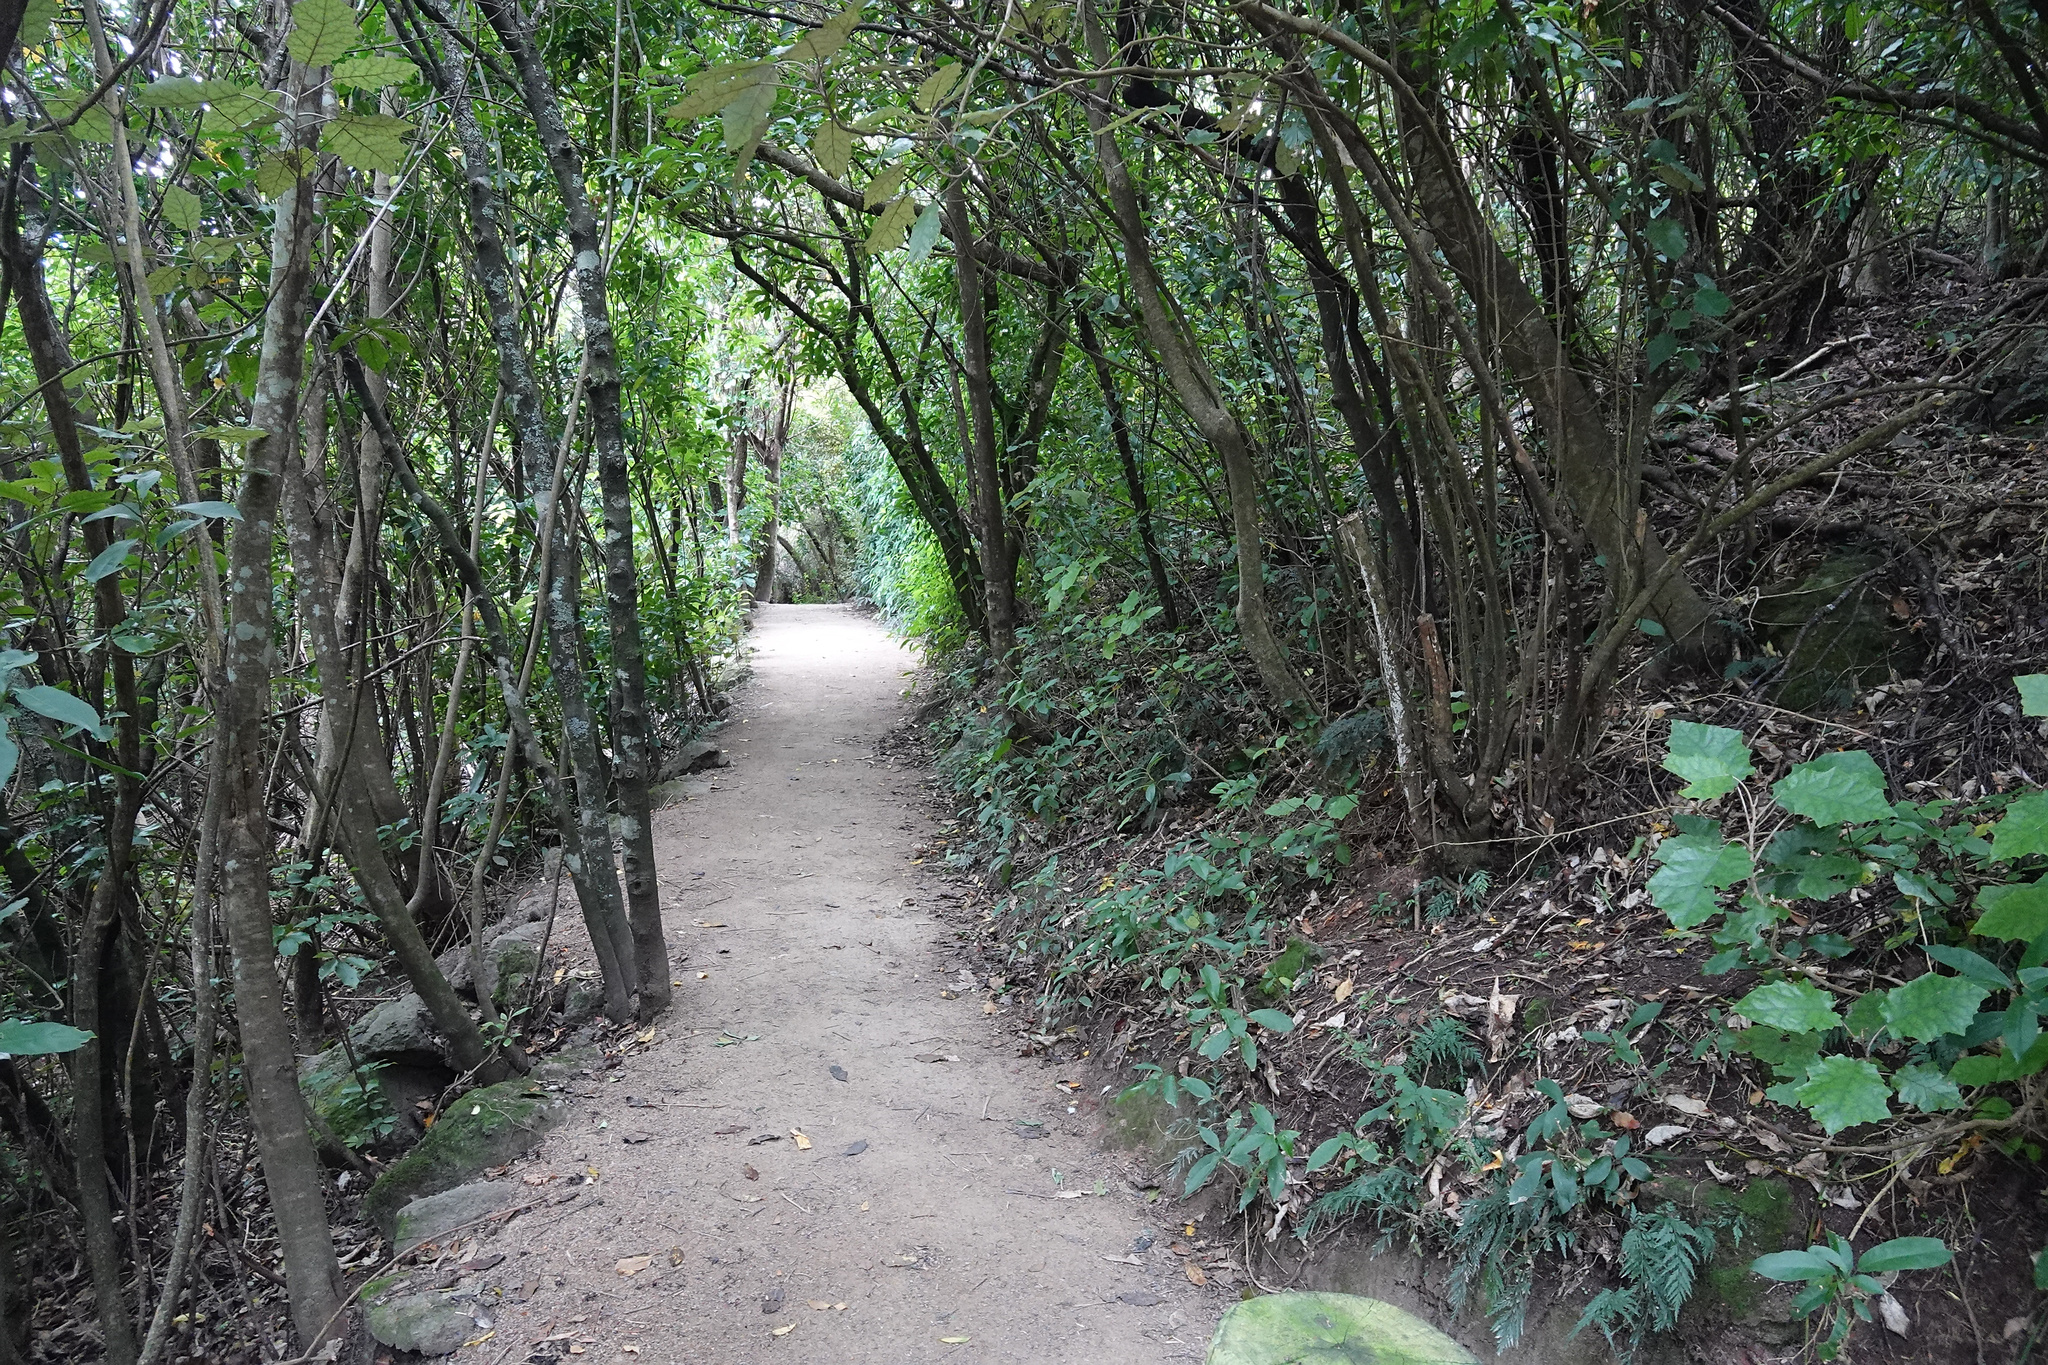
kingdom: Plantae
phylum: Tracheophyta
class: Magnoliopsida
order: Asterales
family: Asteraceae
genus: Brachyglottis
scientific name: Brachyglottis repanda
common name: Hedge ragwort
